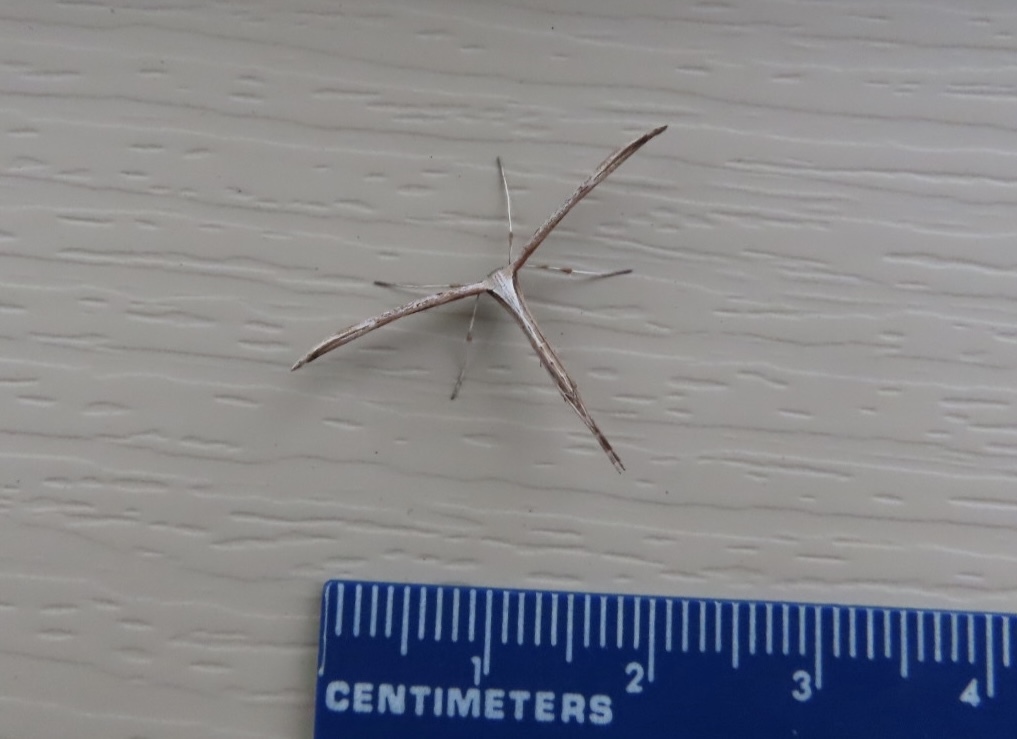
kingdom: Animalia
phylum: Arthropoda
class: Insecta
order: Lepidoptera
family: Pterophoridae
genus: Emmelina
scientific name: Emmelina monodactyla
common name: Common plume
